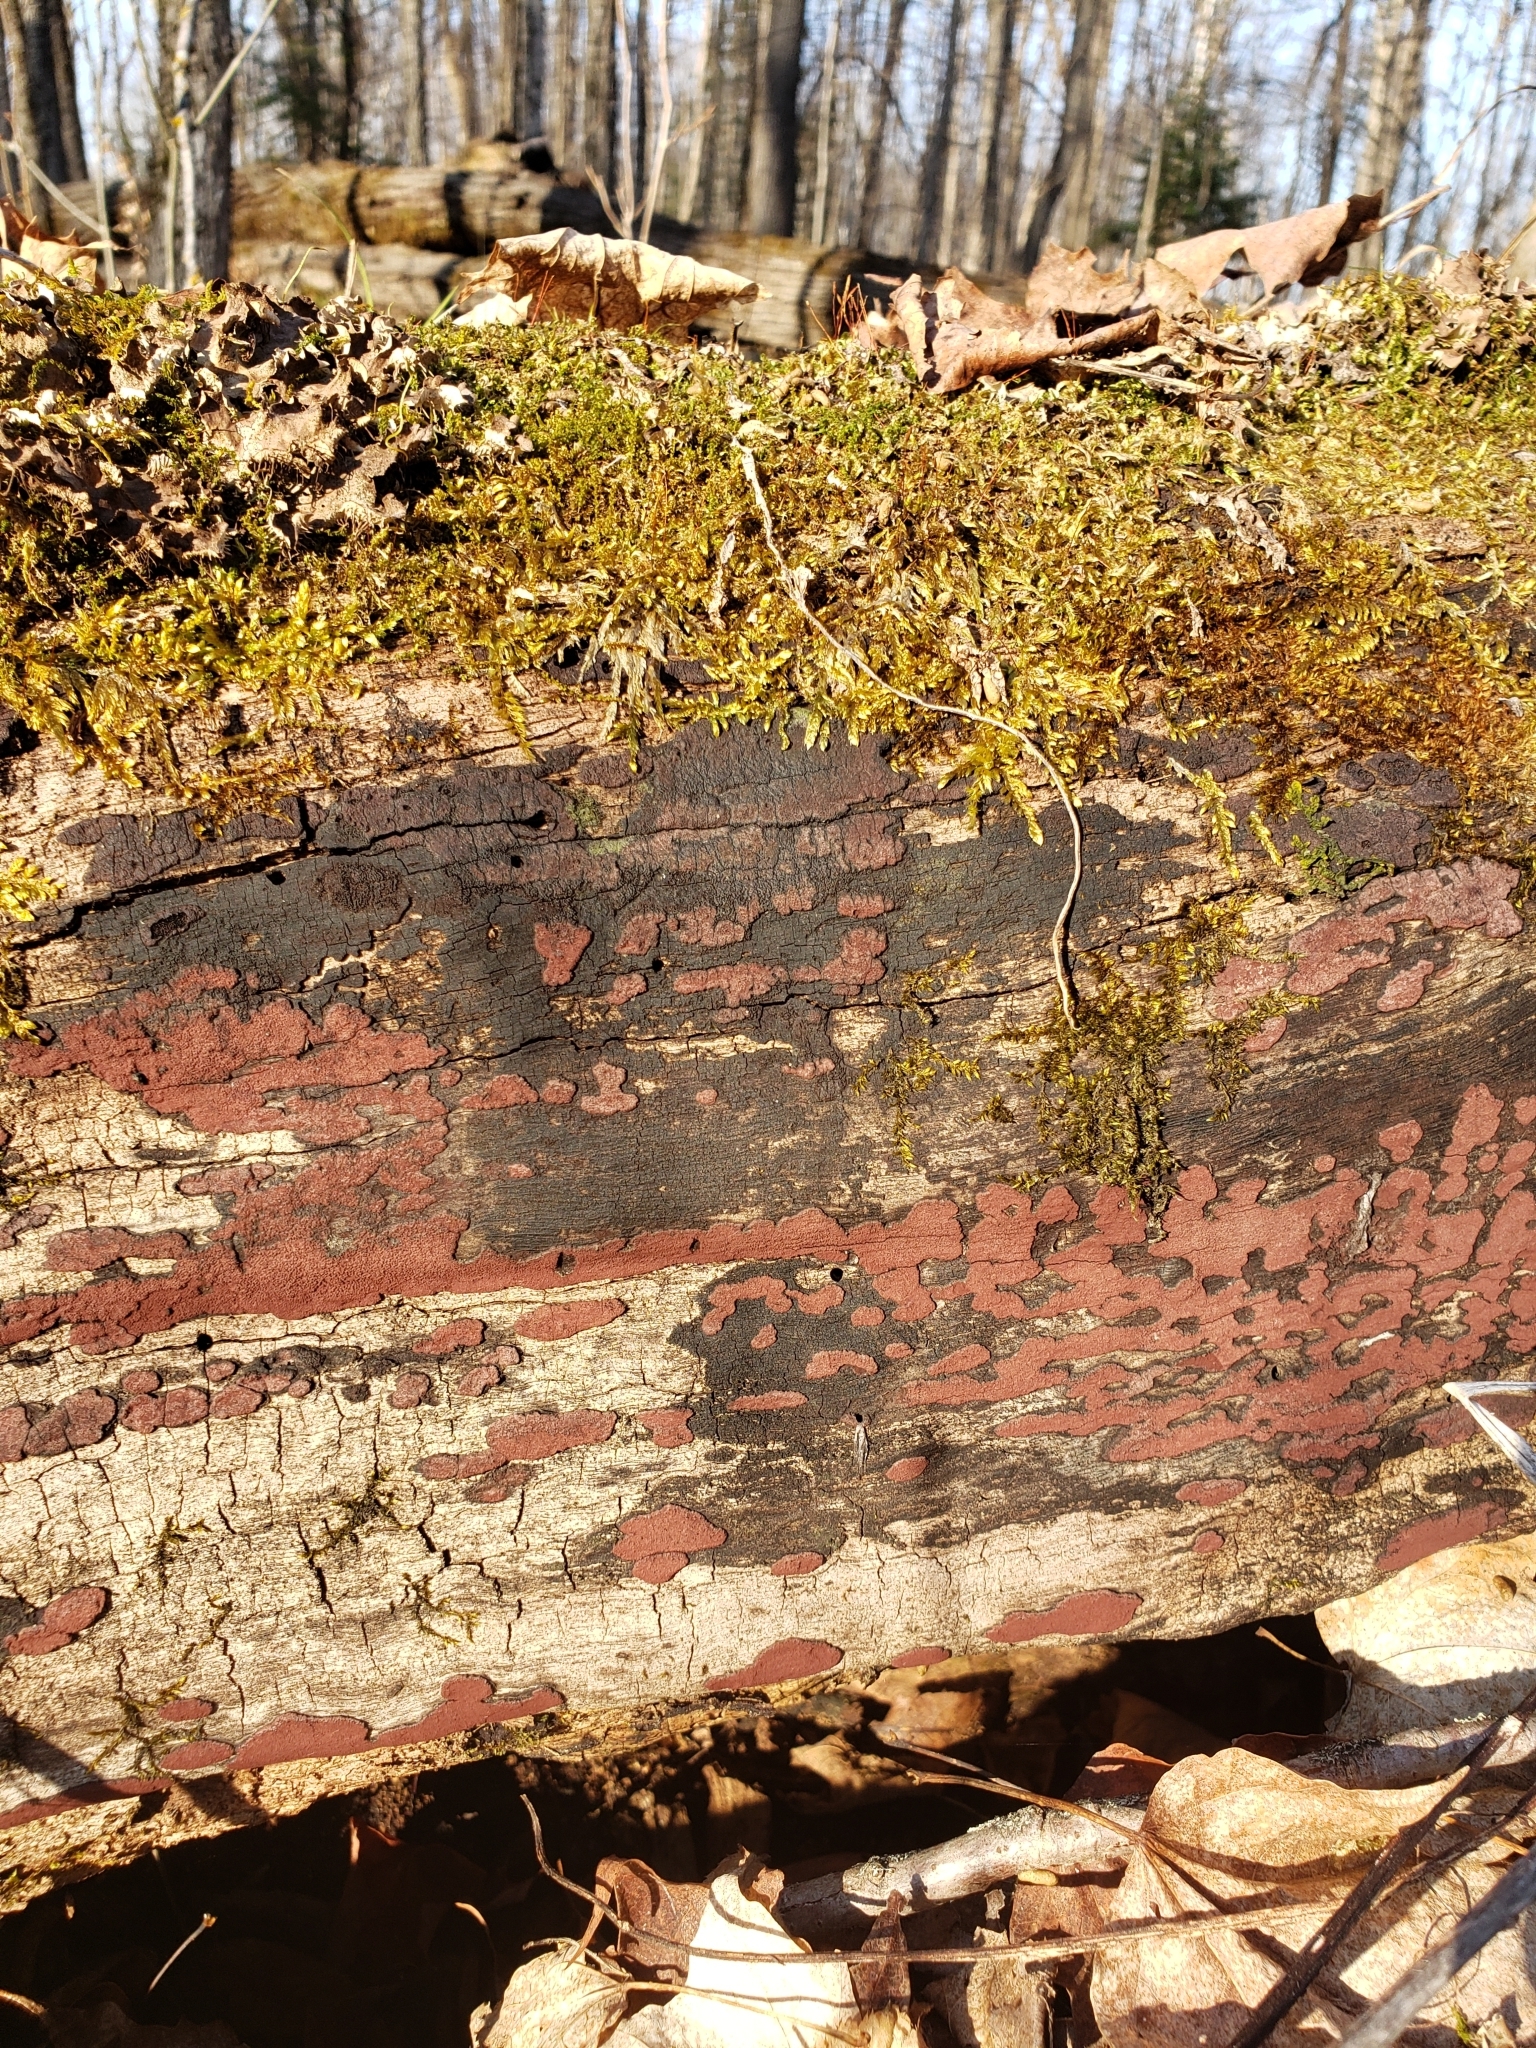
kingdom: Fungi
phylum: Ascomycota
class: Sordariomycetes
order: Xylariales
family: Hypoxylaceae
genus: Hypoxylon
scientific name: Hypoxylon rubiginosum
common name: Rusty woodwart
